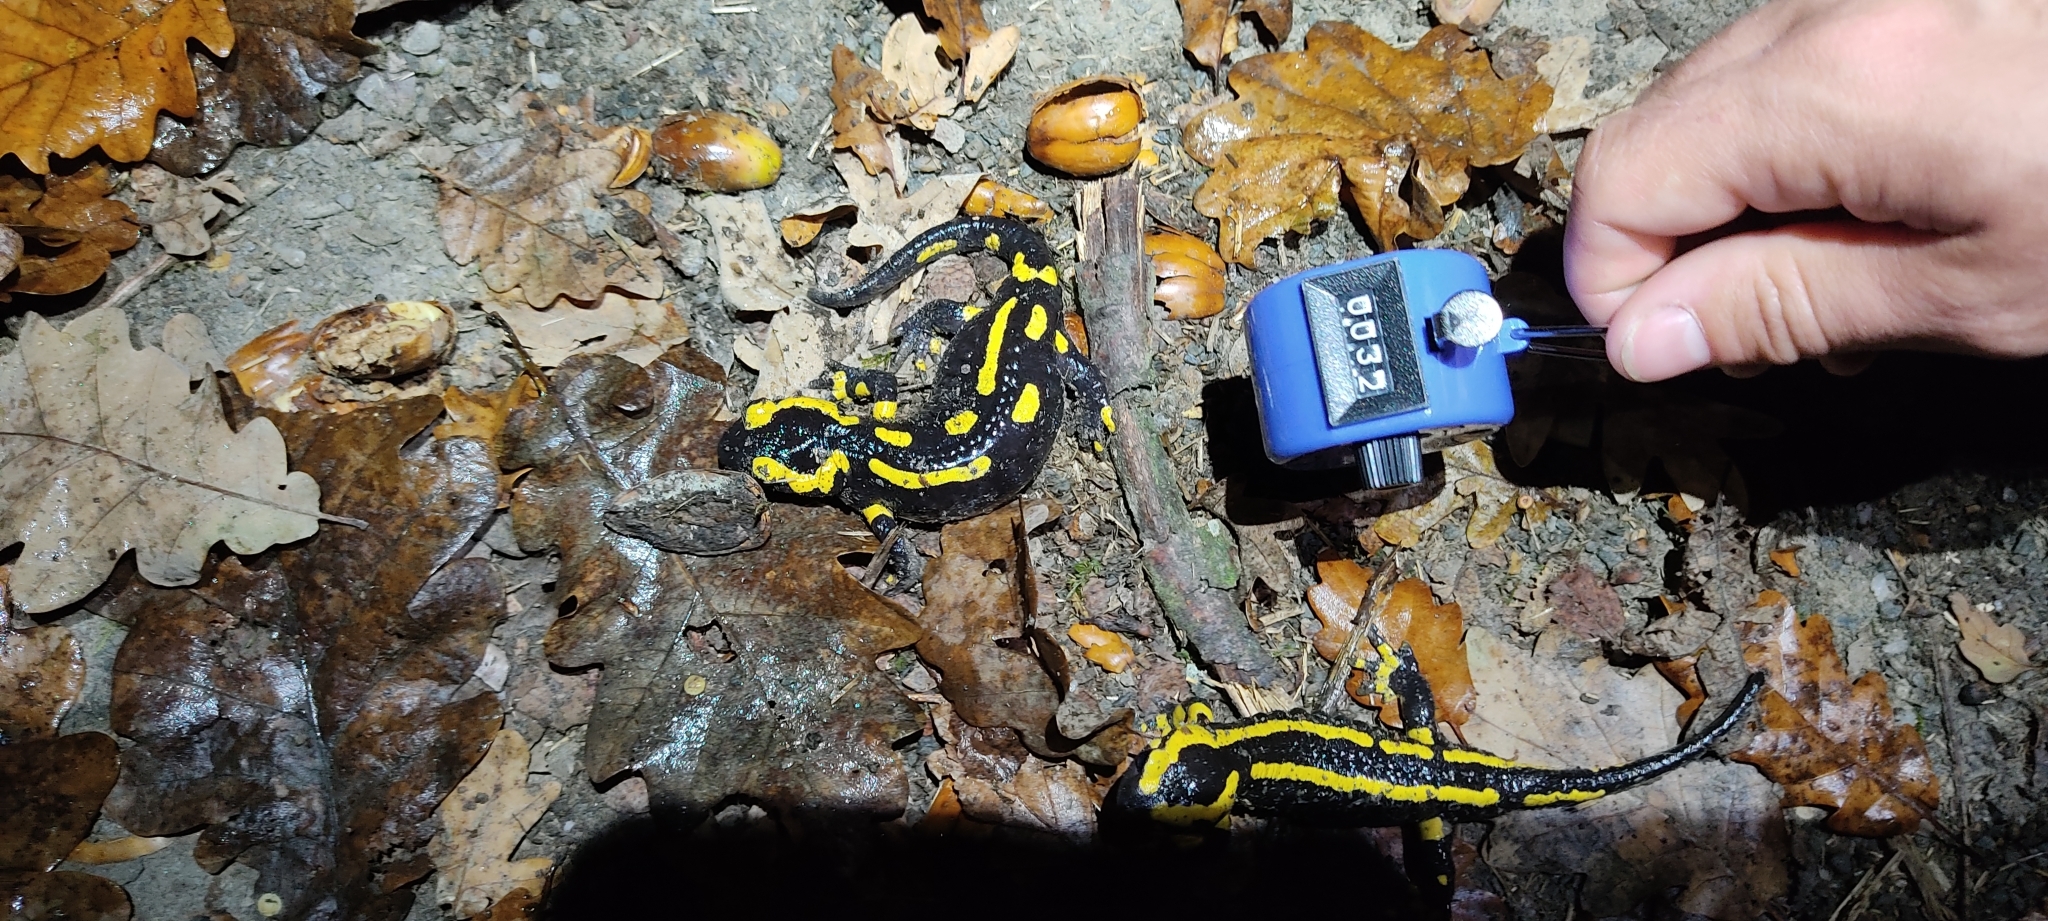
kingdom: Animalia
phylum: Chordata
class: Amphibia
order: Caudata
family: Salamandridae
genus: Salamandra
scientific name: Salamandra salamandra
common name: Fire salamander
